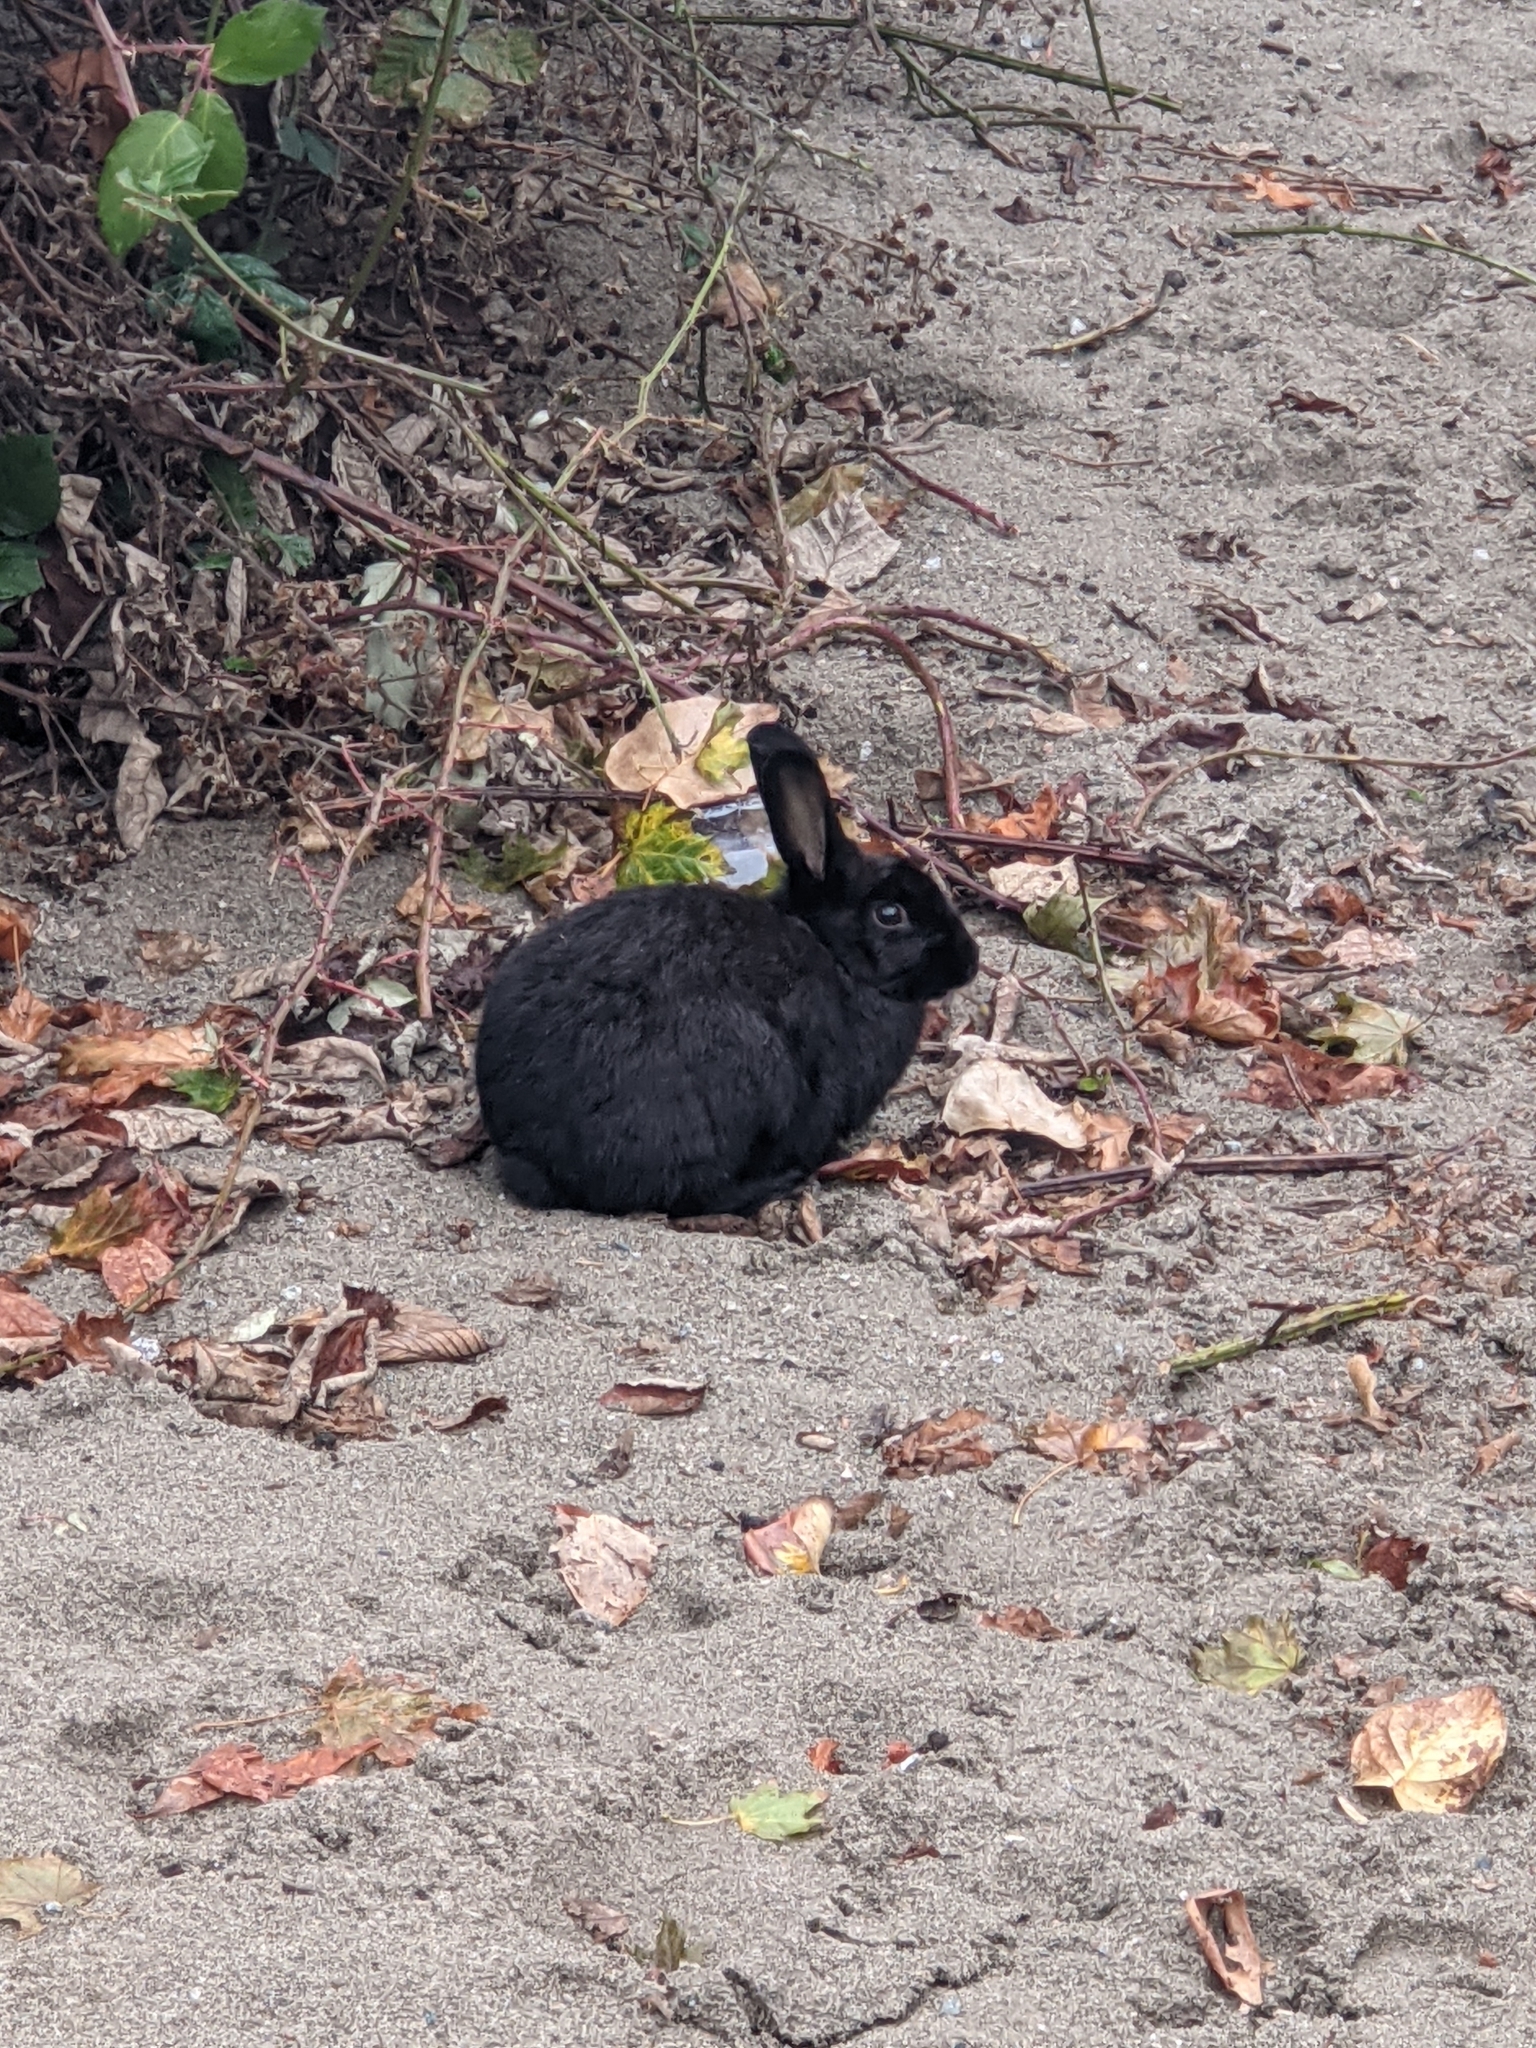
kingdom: Animalia
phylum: Chordata
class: Mammalia
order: Lagomorpha
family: Leporidae
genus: Oryctolagus
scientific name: Oryctolagus cuniculus
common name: European rabbit
